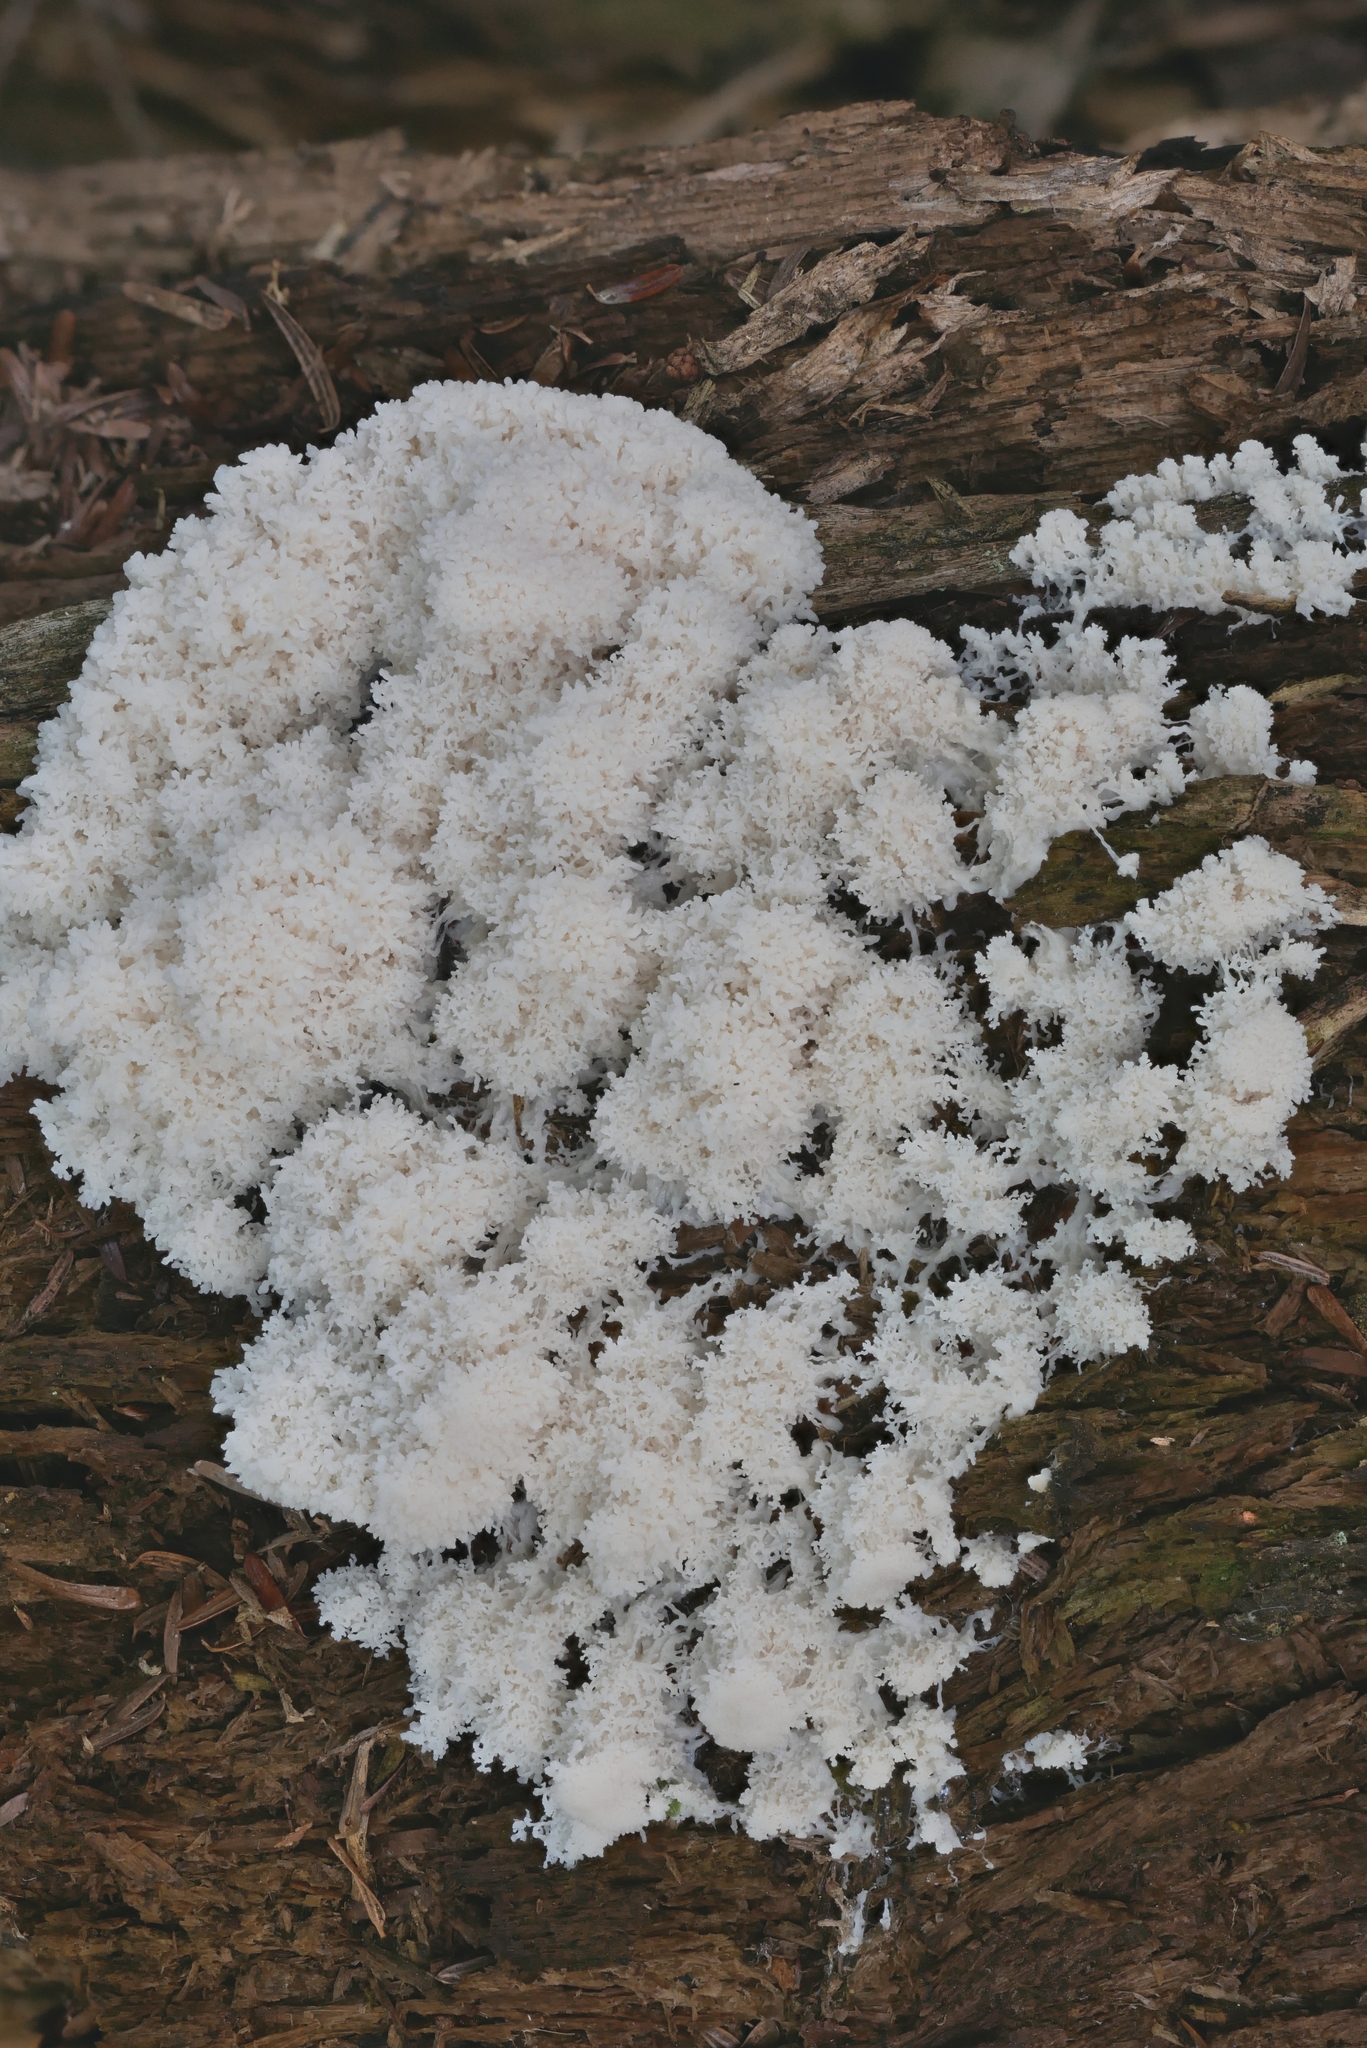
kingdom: Protozoa
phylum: Mycetozoa
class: Myxomycetes
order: Physarales
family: Physaraceae
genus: Fuligo
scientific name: Fuligo septica
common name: Dog vomit slime mold
